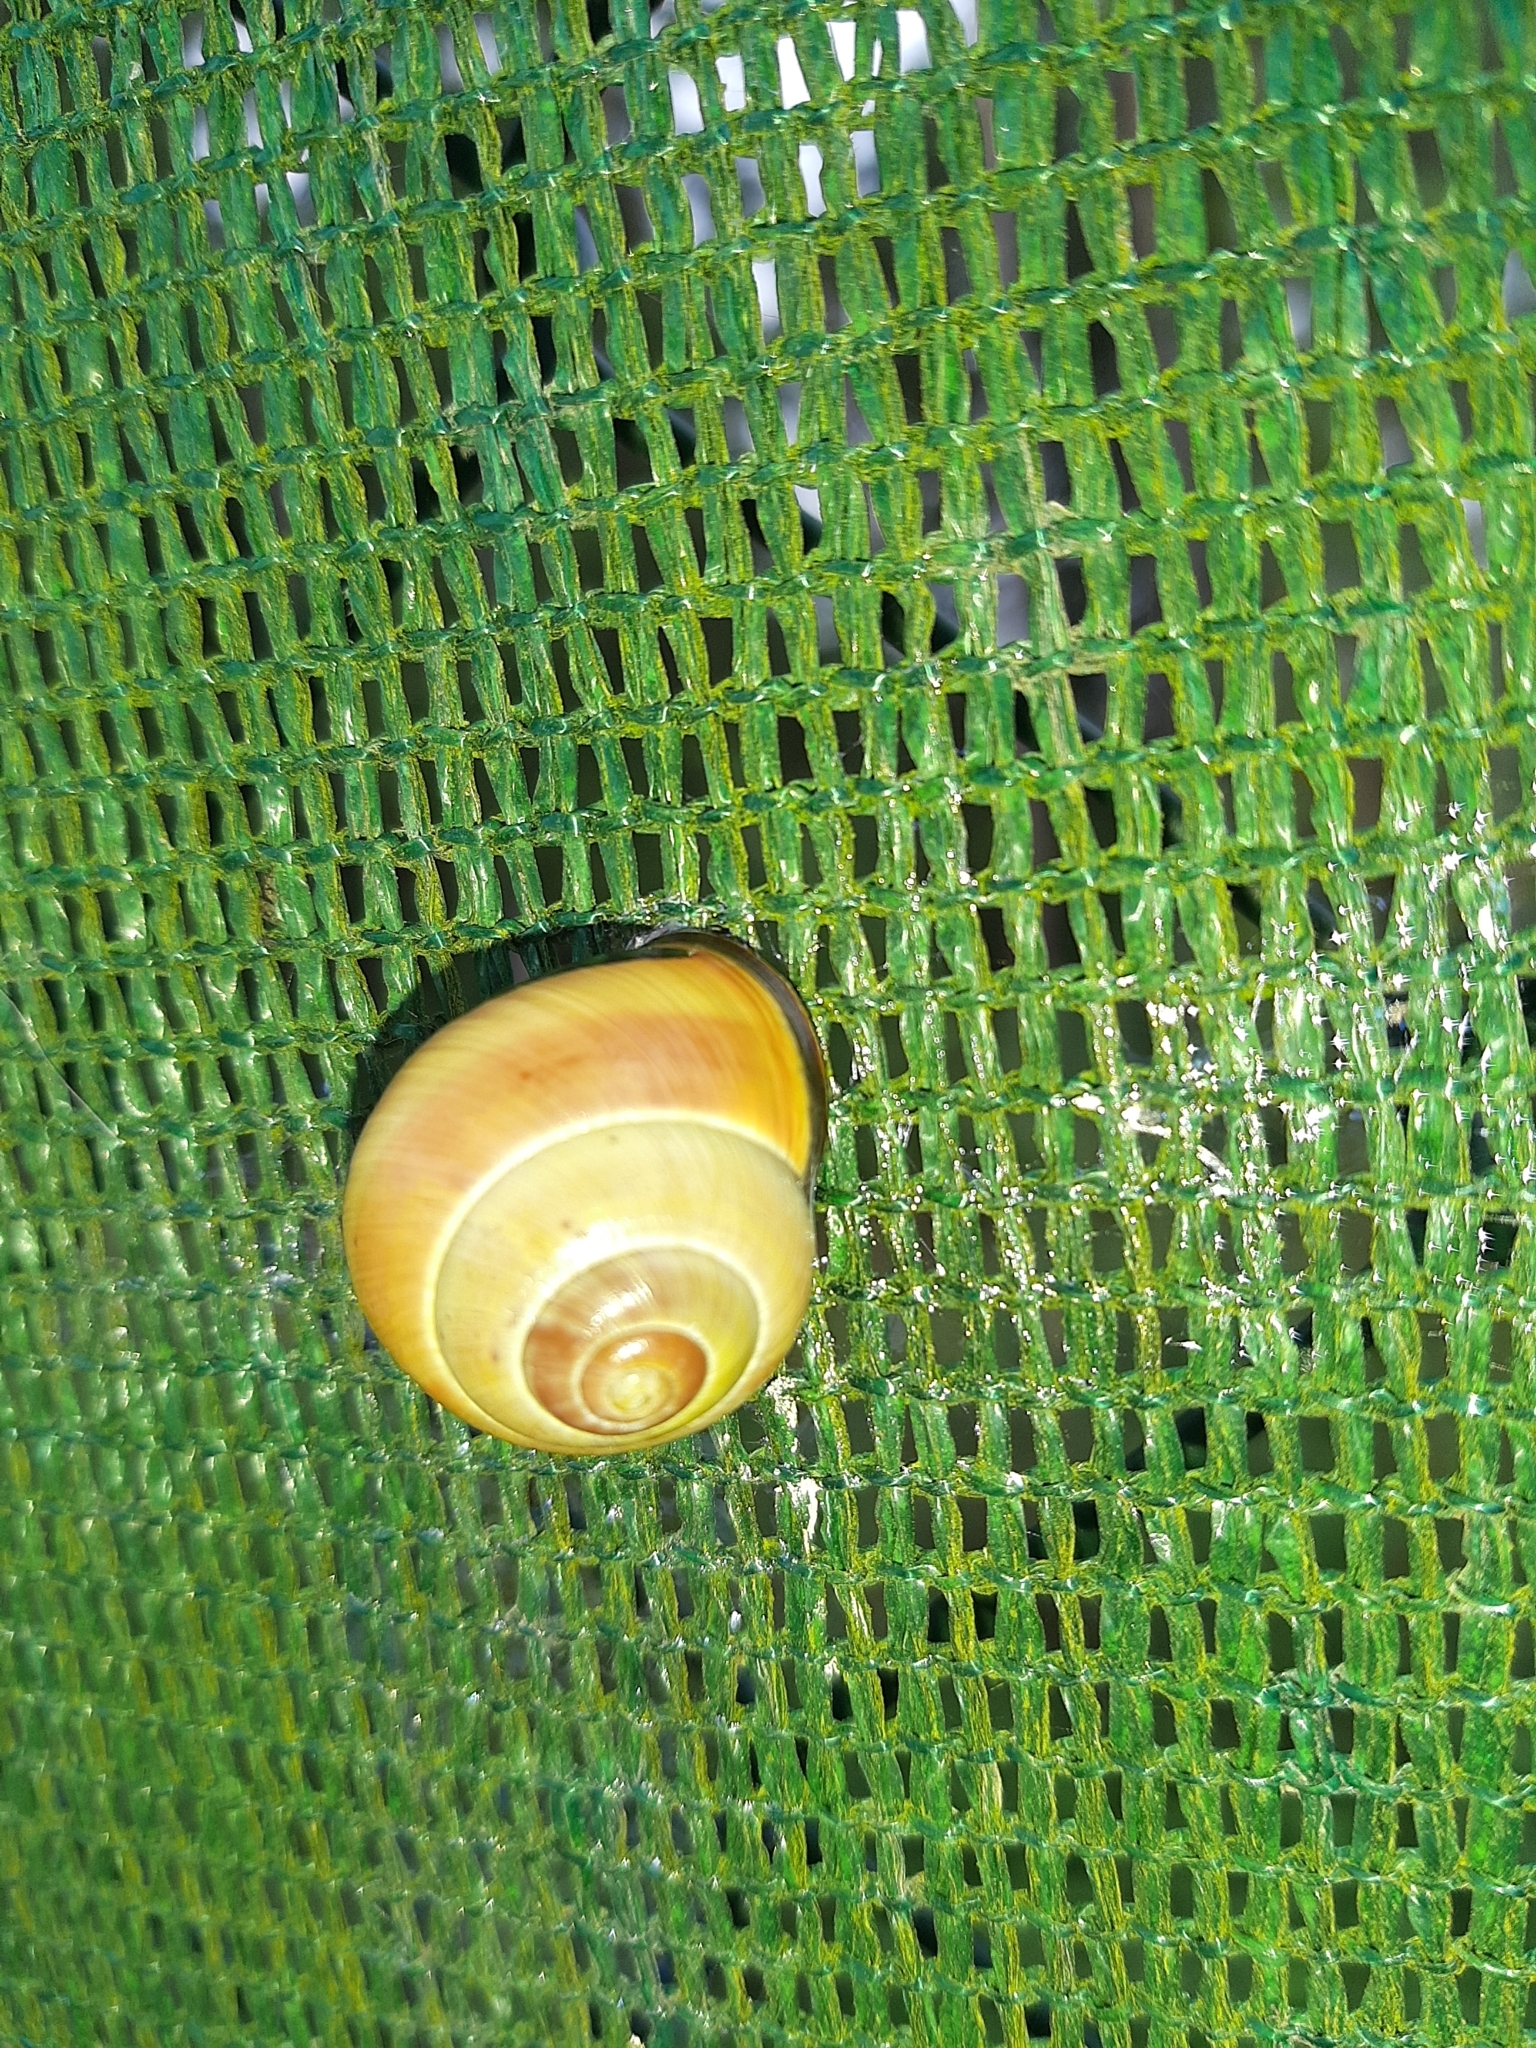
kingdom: Animalia
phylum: Mollusca
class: Gastropoda
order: Stylommatophora
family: Helicidae
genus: Cepaea
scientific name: Cepaea nemoralis
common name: Grovesnail
